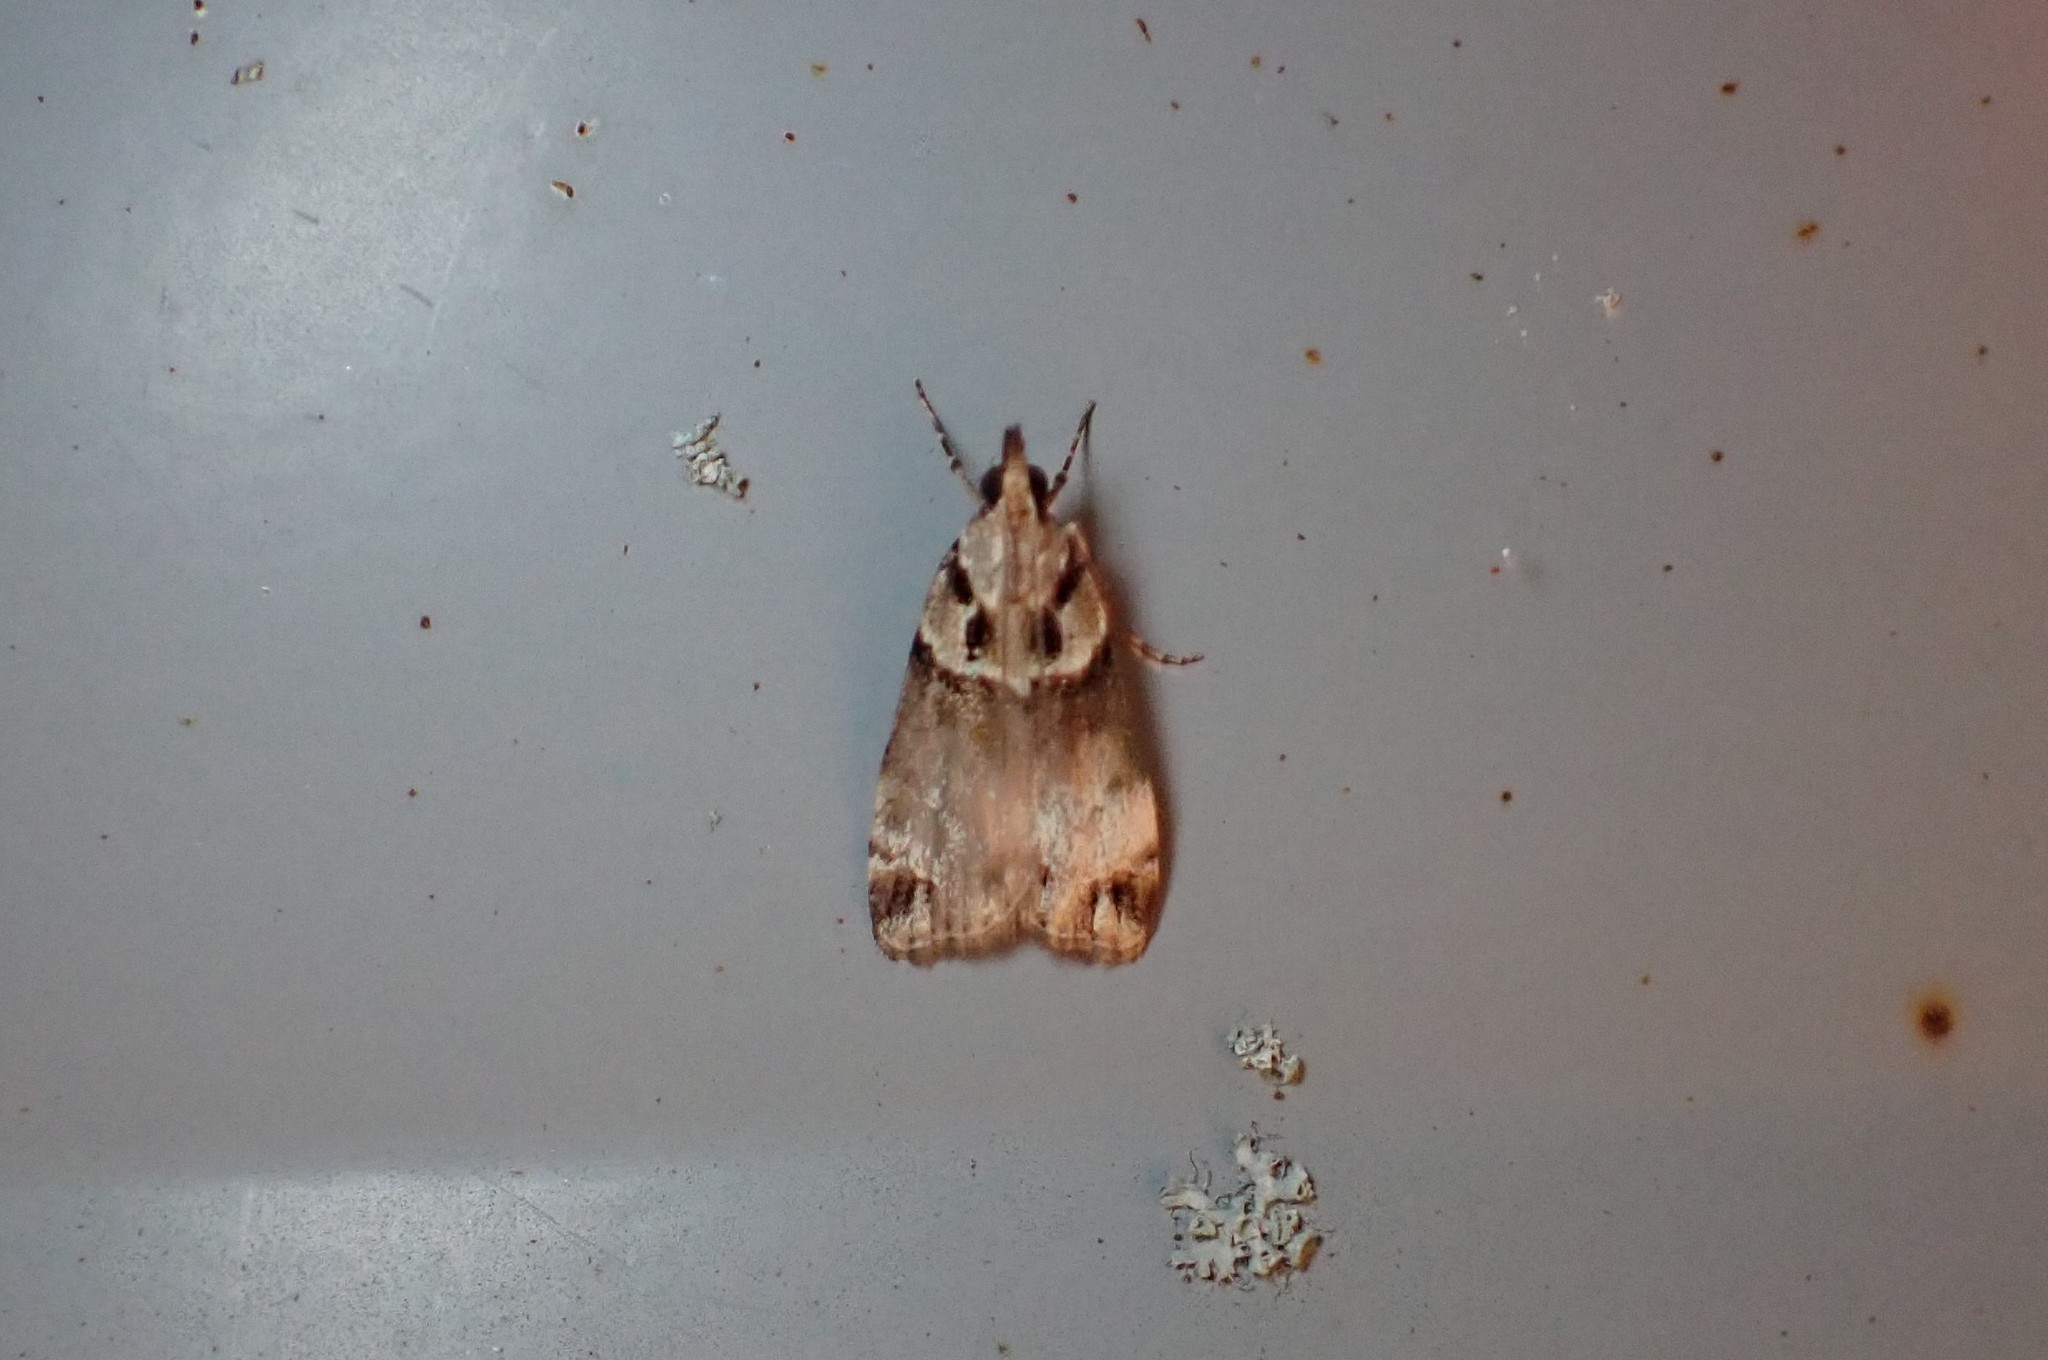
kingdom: Animalia
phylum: Arthropoda
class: Insecta
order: Lepidoptera
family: Crambidae
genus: Eudonia
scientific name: Eudonia periphanes
